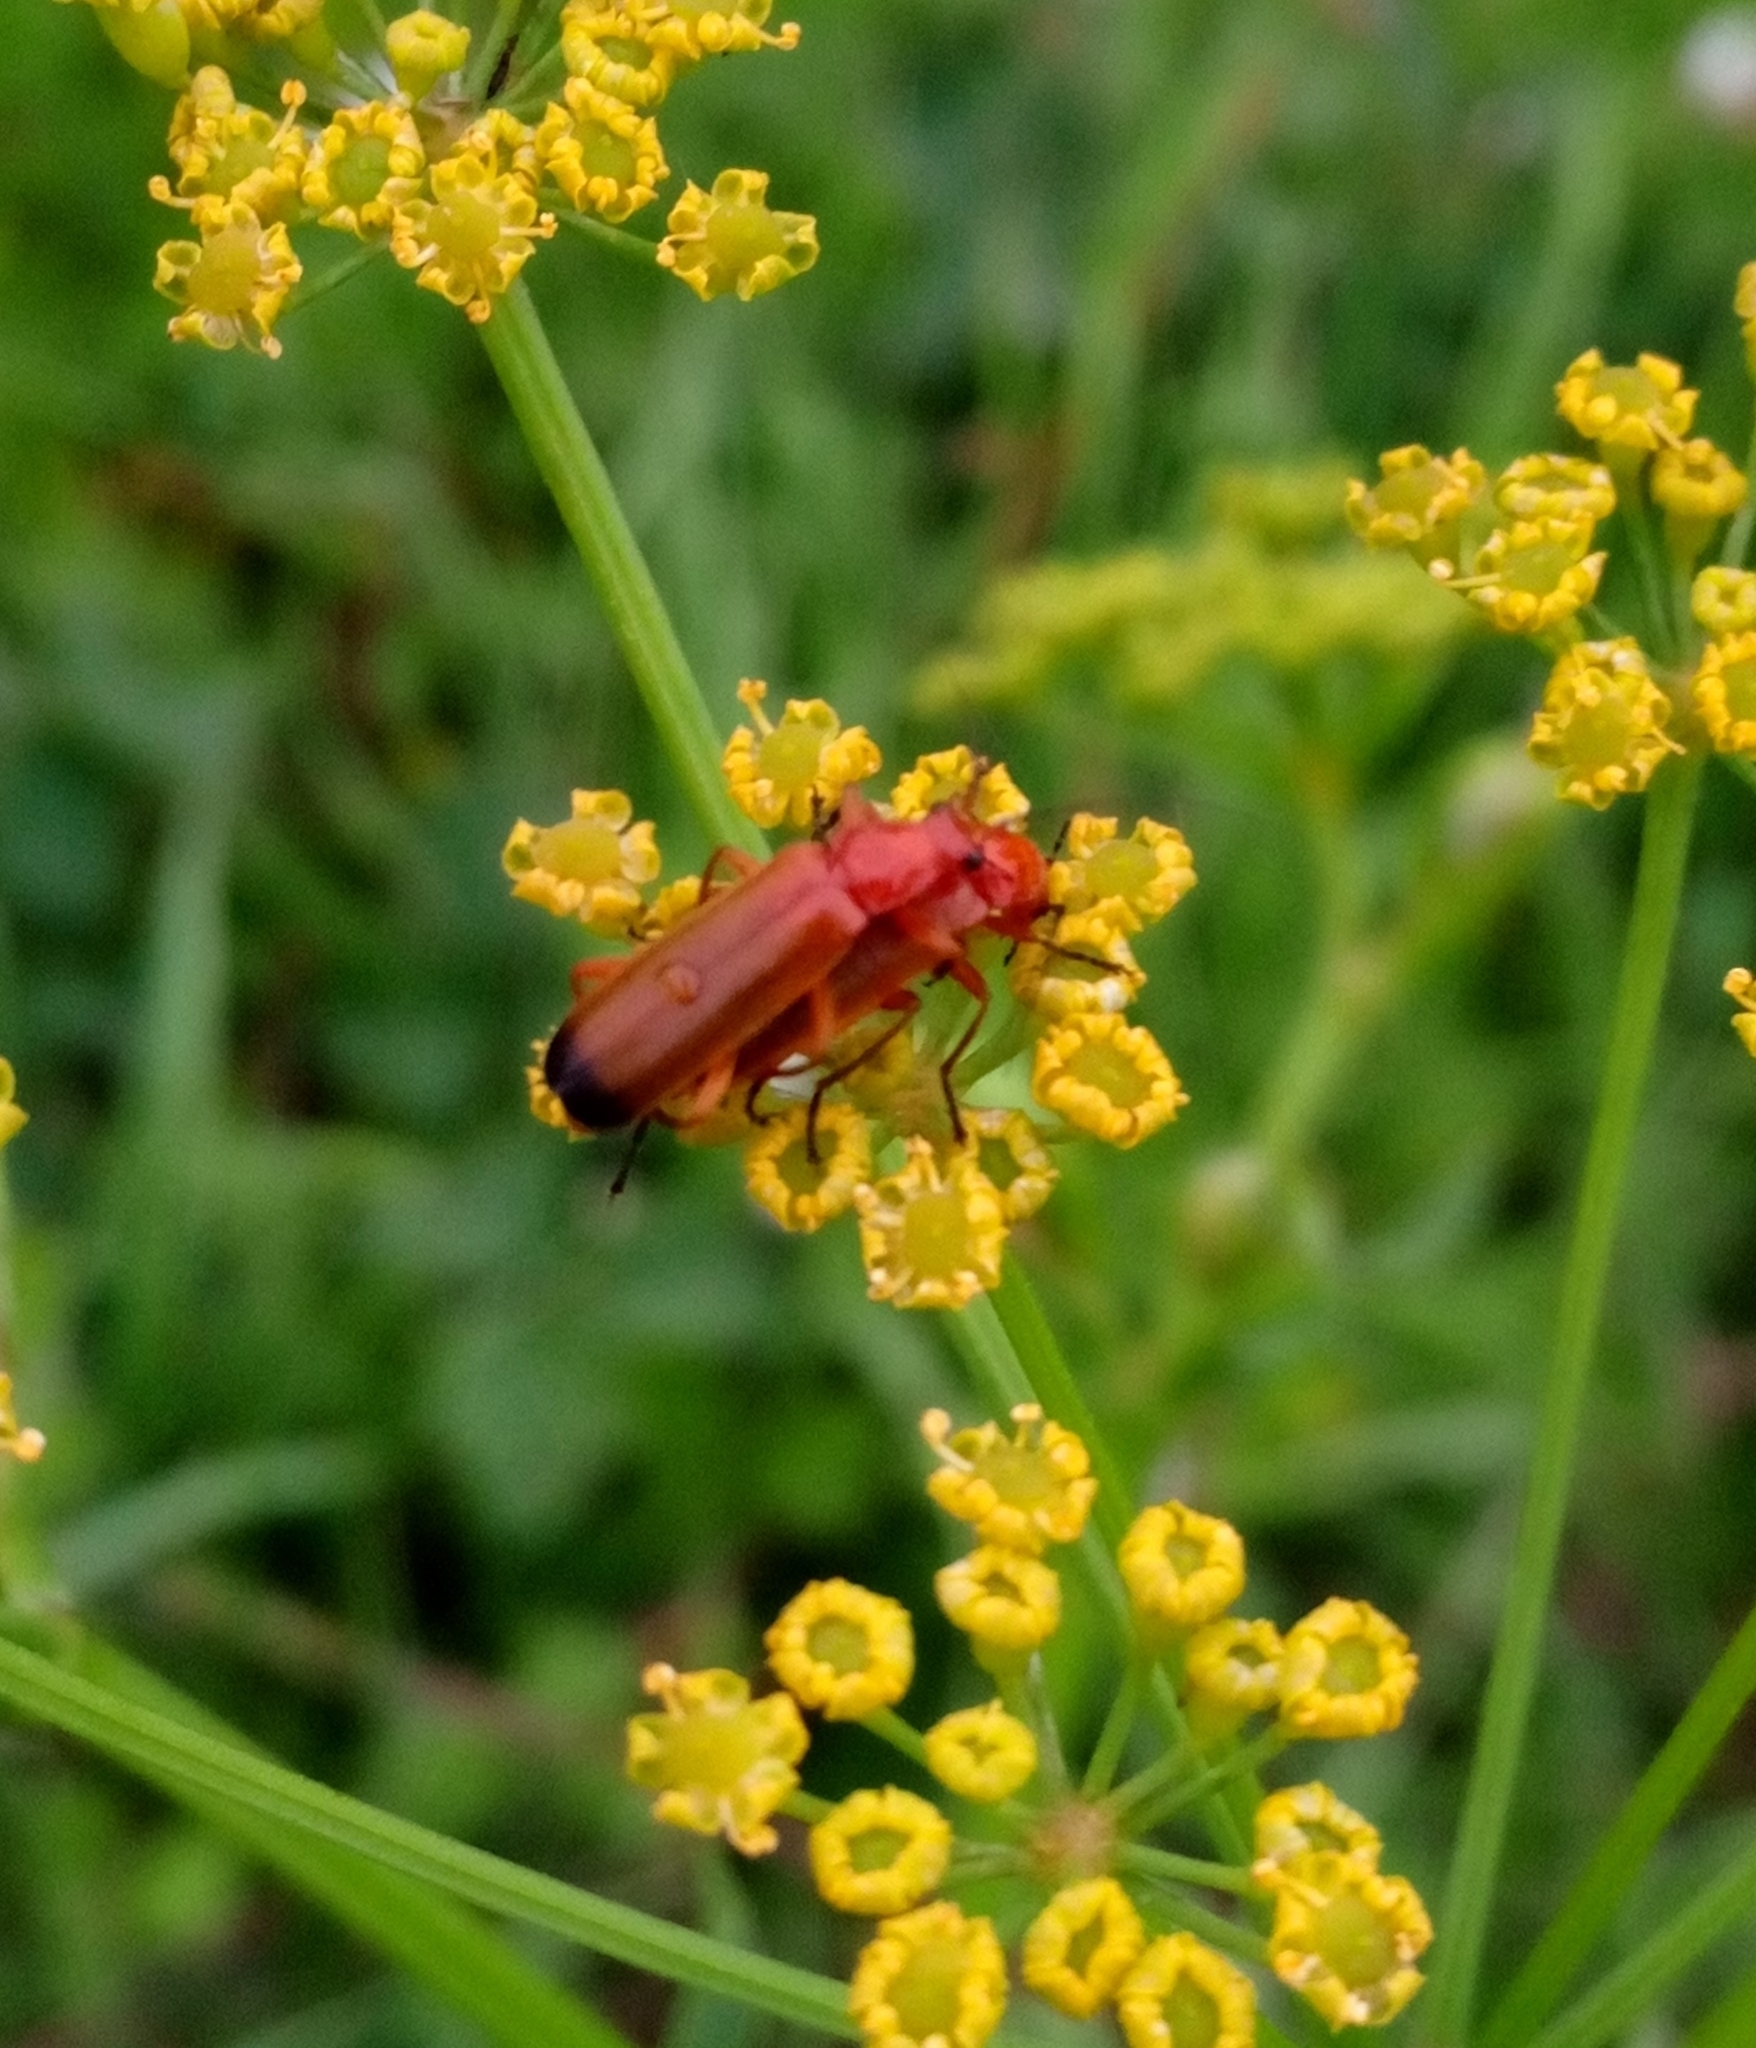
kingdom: Animalia
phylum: Arthropoda
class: Insecta
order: Coleoptera
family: Cantharidae
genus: Rhagonycha
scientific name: Rhagonycha fulva
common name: Common red soldier beetle
